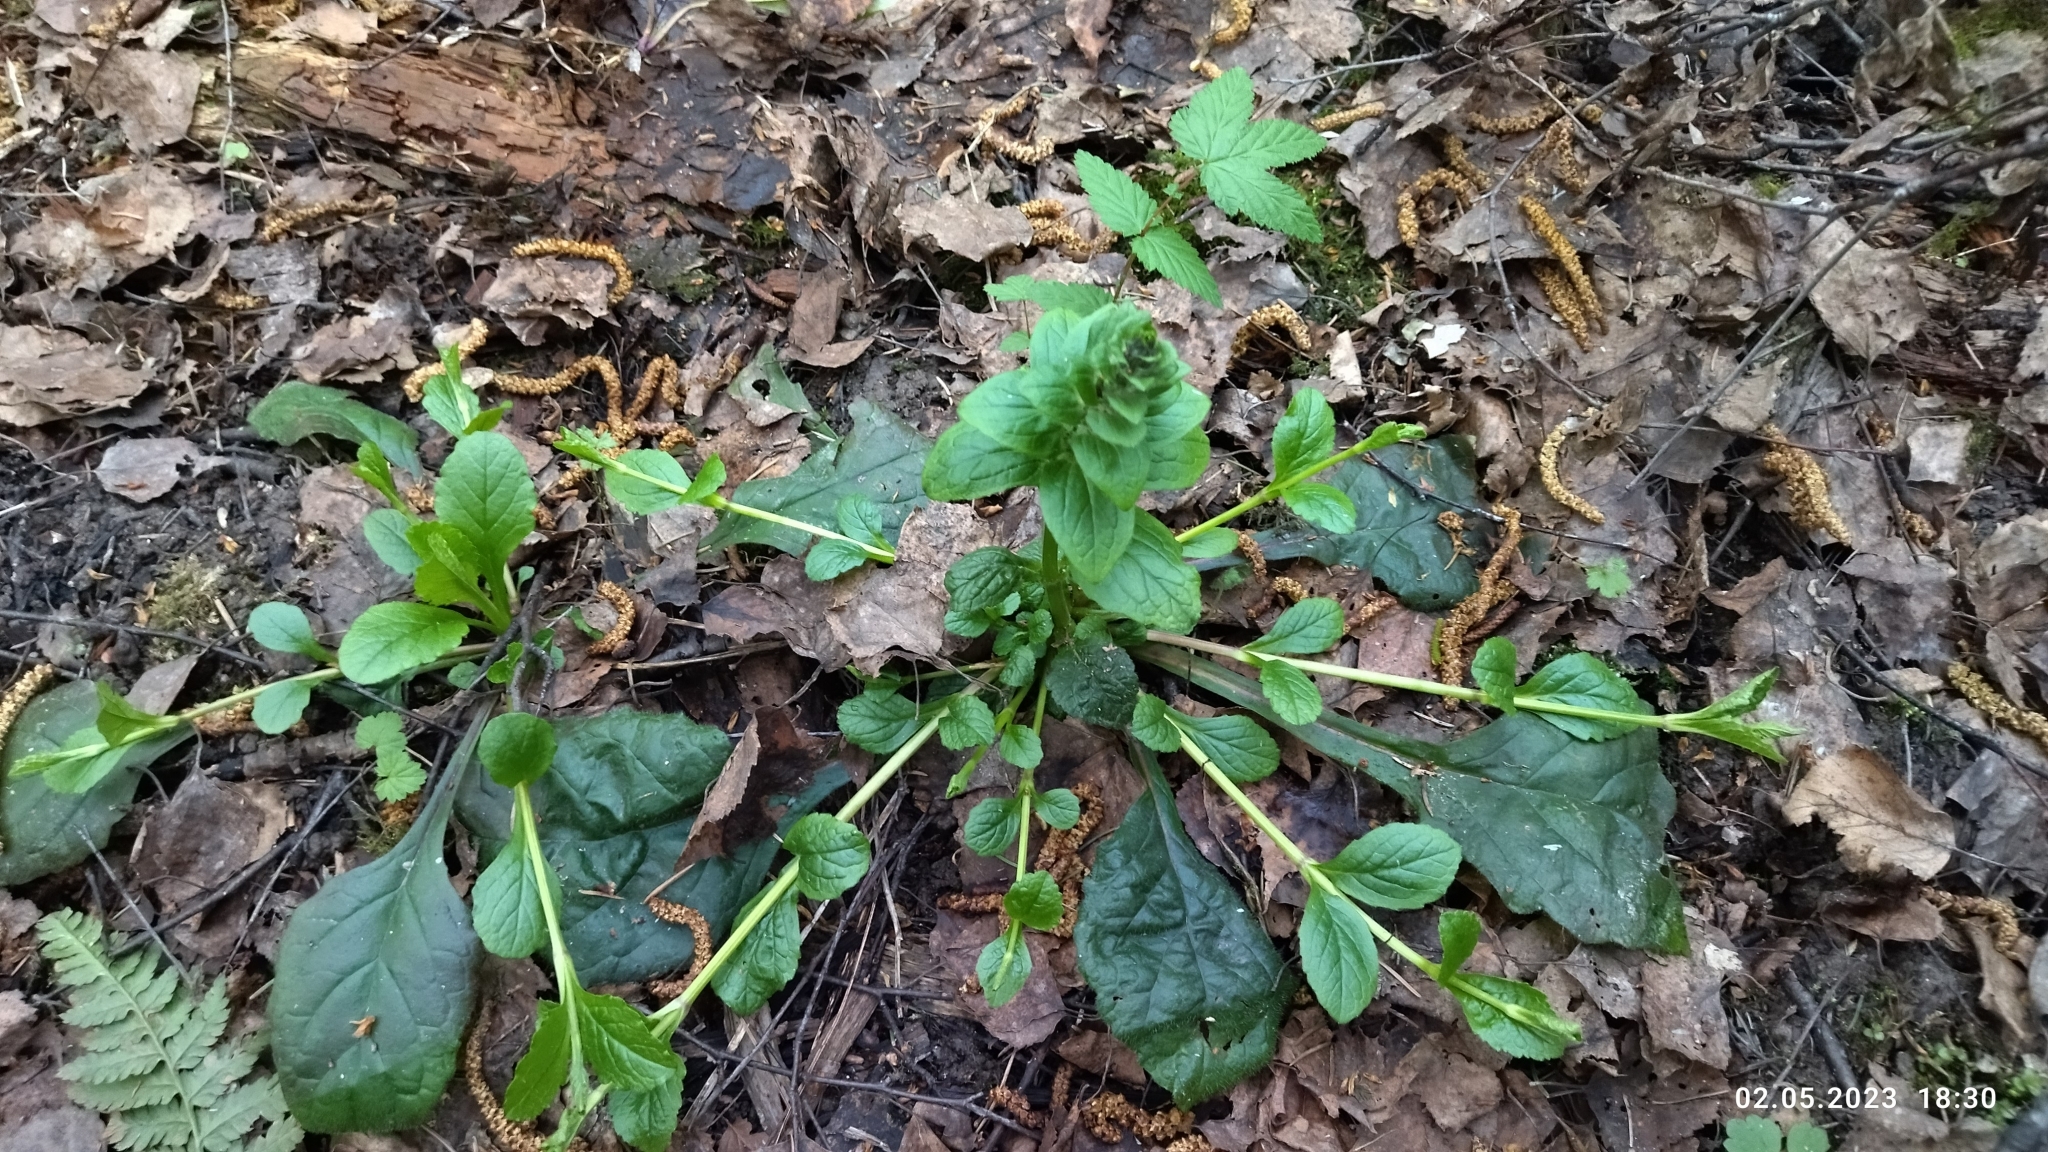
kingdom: Plantae
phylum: Tracheophyta
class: Magnoliopsida
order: Lamiales
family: Lamiaceae
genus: Ajuga
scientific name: Ajuga reptans
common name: Bugle
